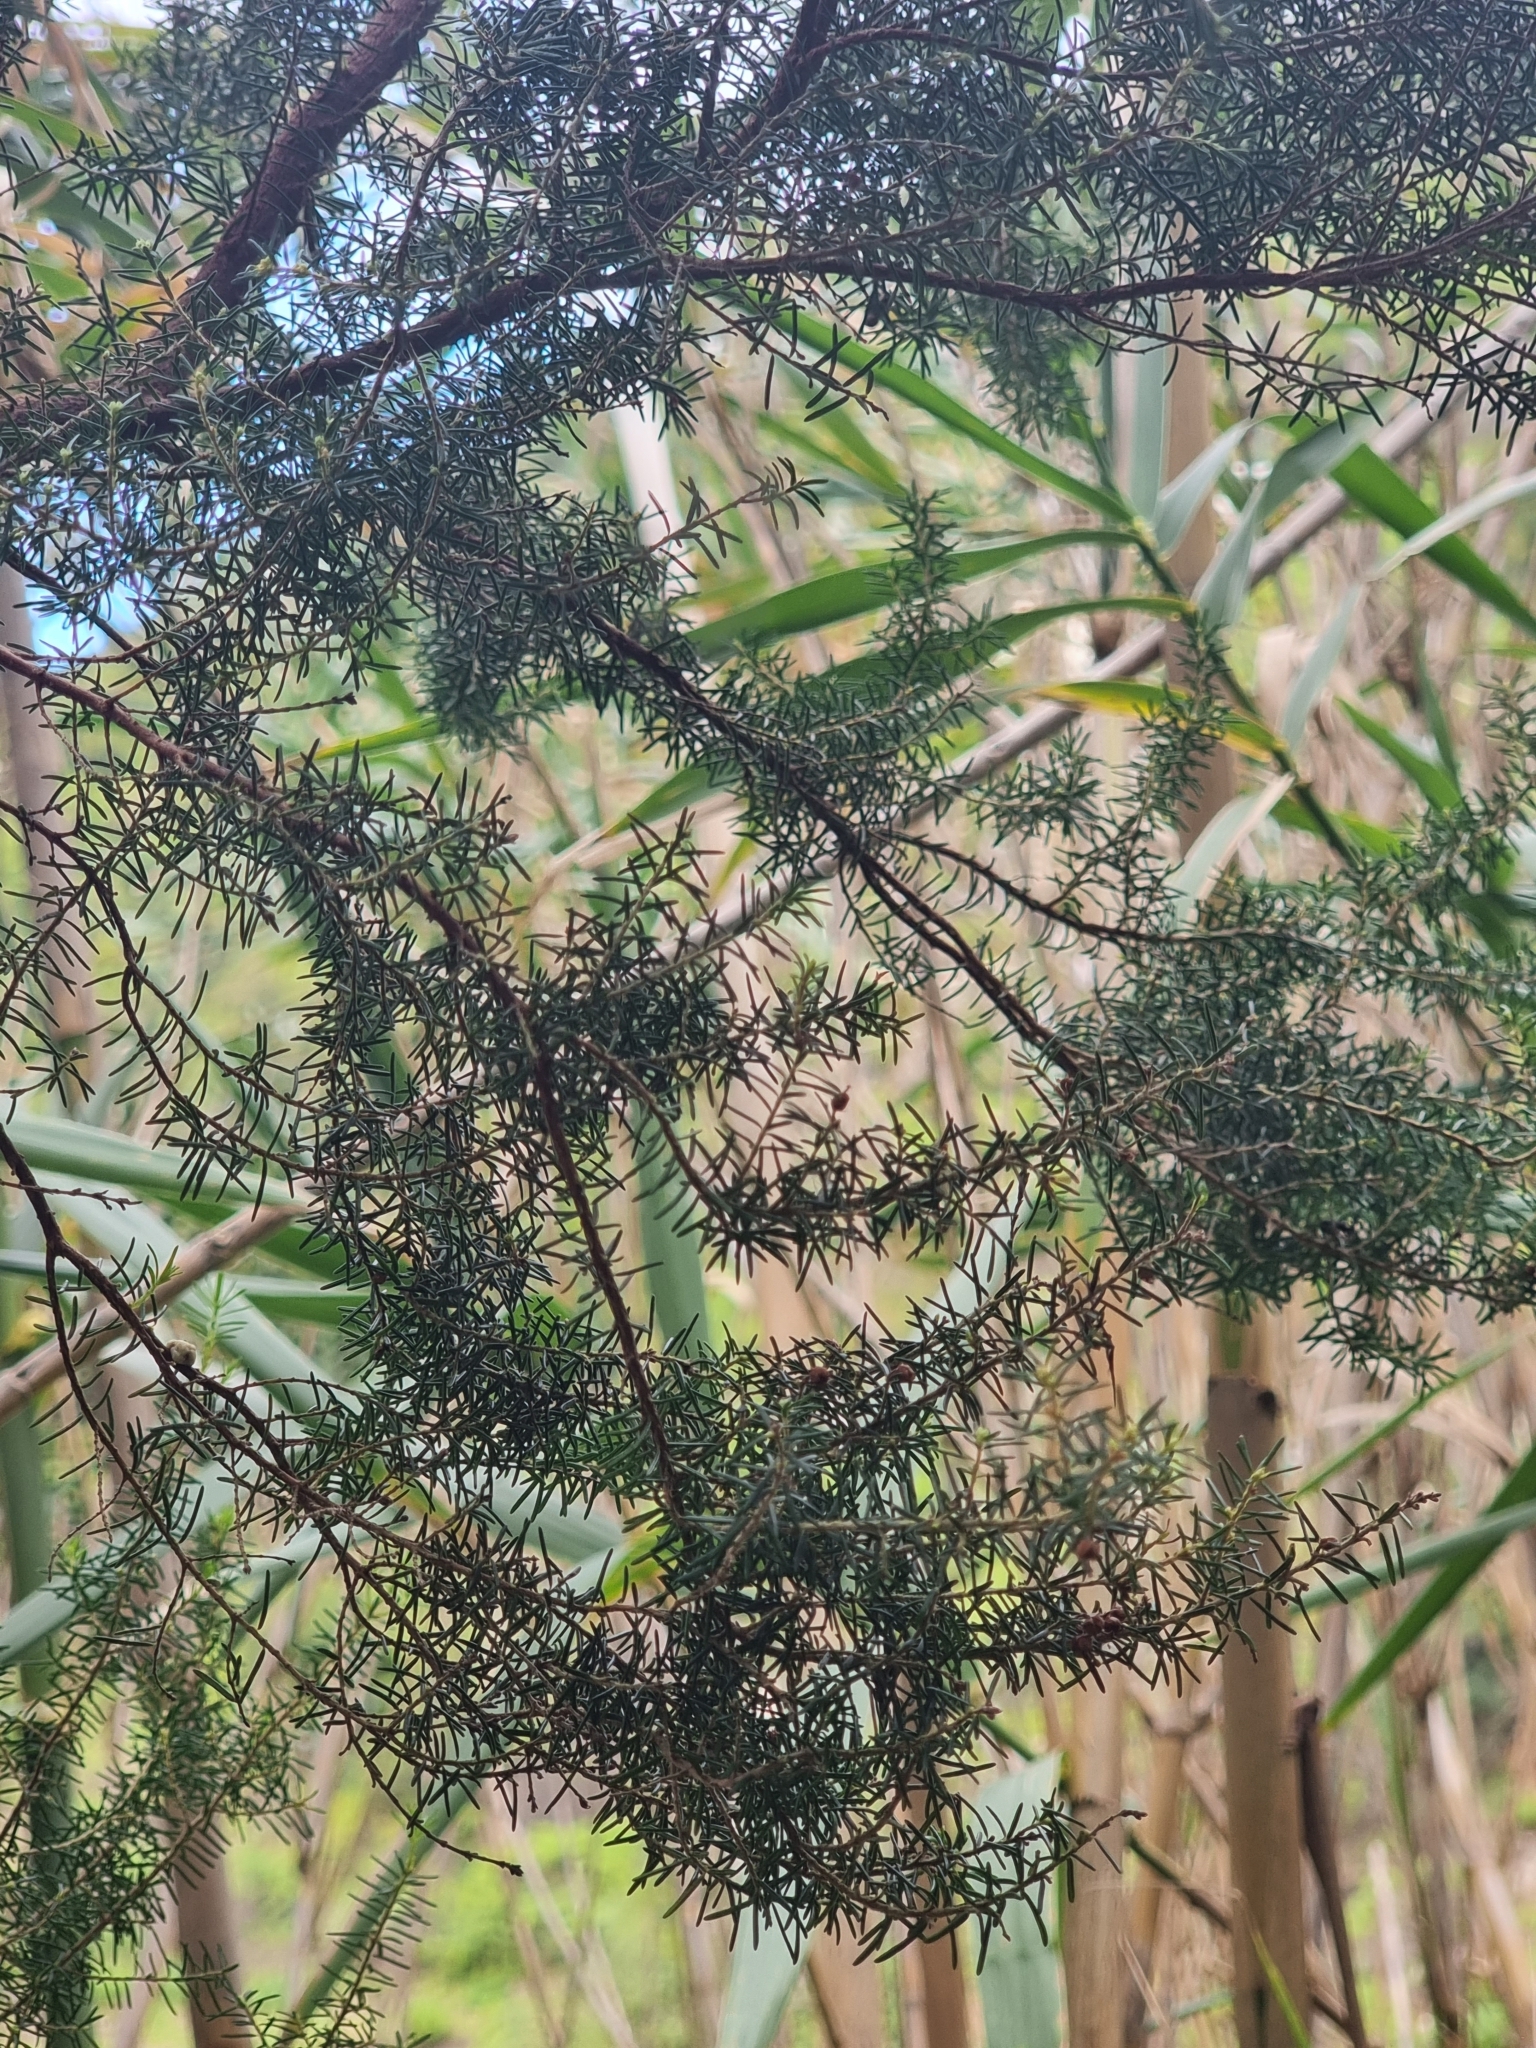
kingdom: Plantae
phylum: Tracheophyta
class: Magnoliopsida
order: Ericales
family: Ericaceae
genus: Erica
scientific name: Erica platycodon
